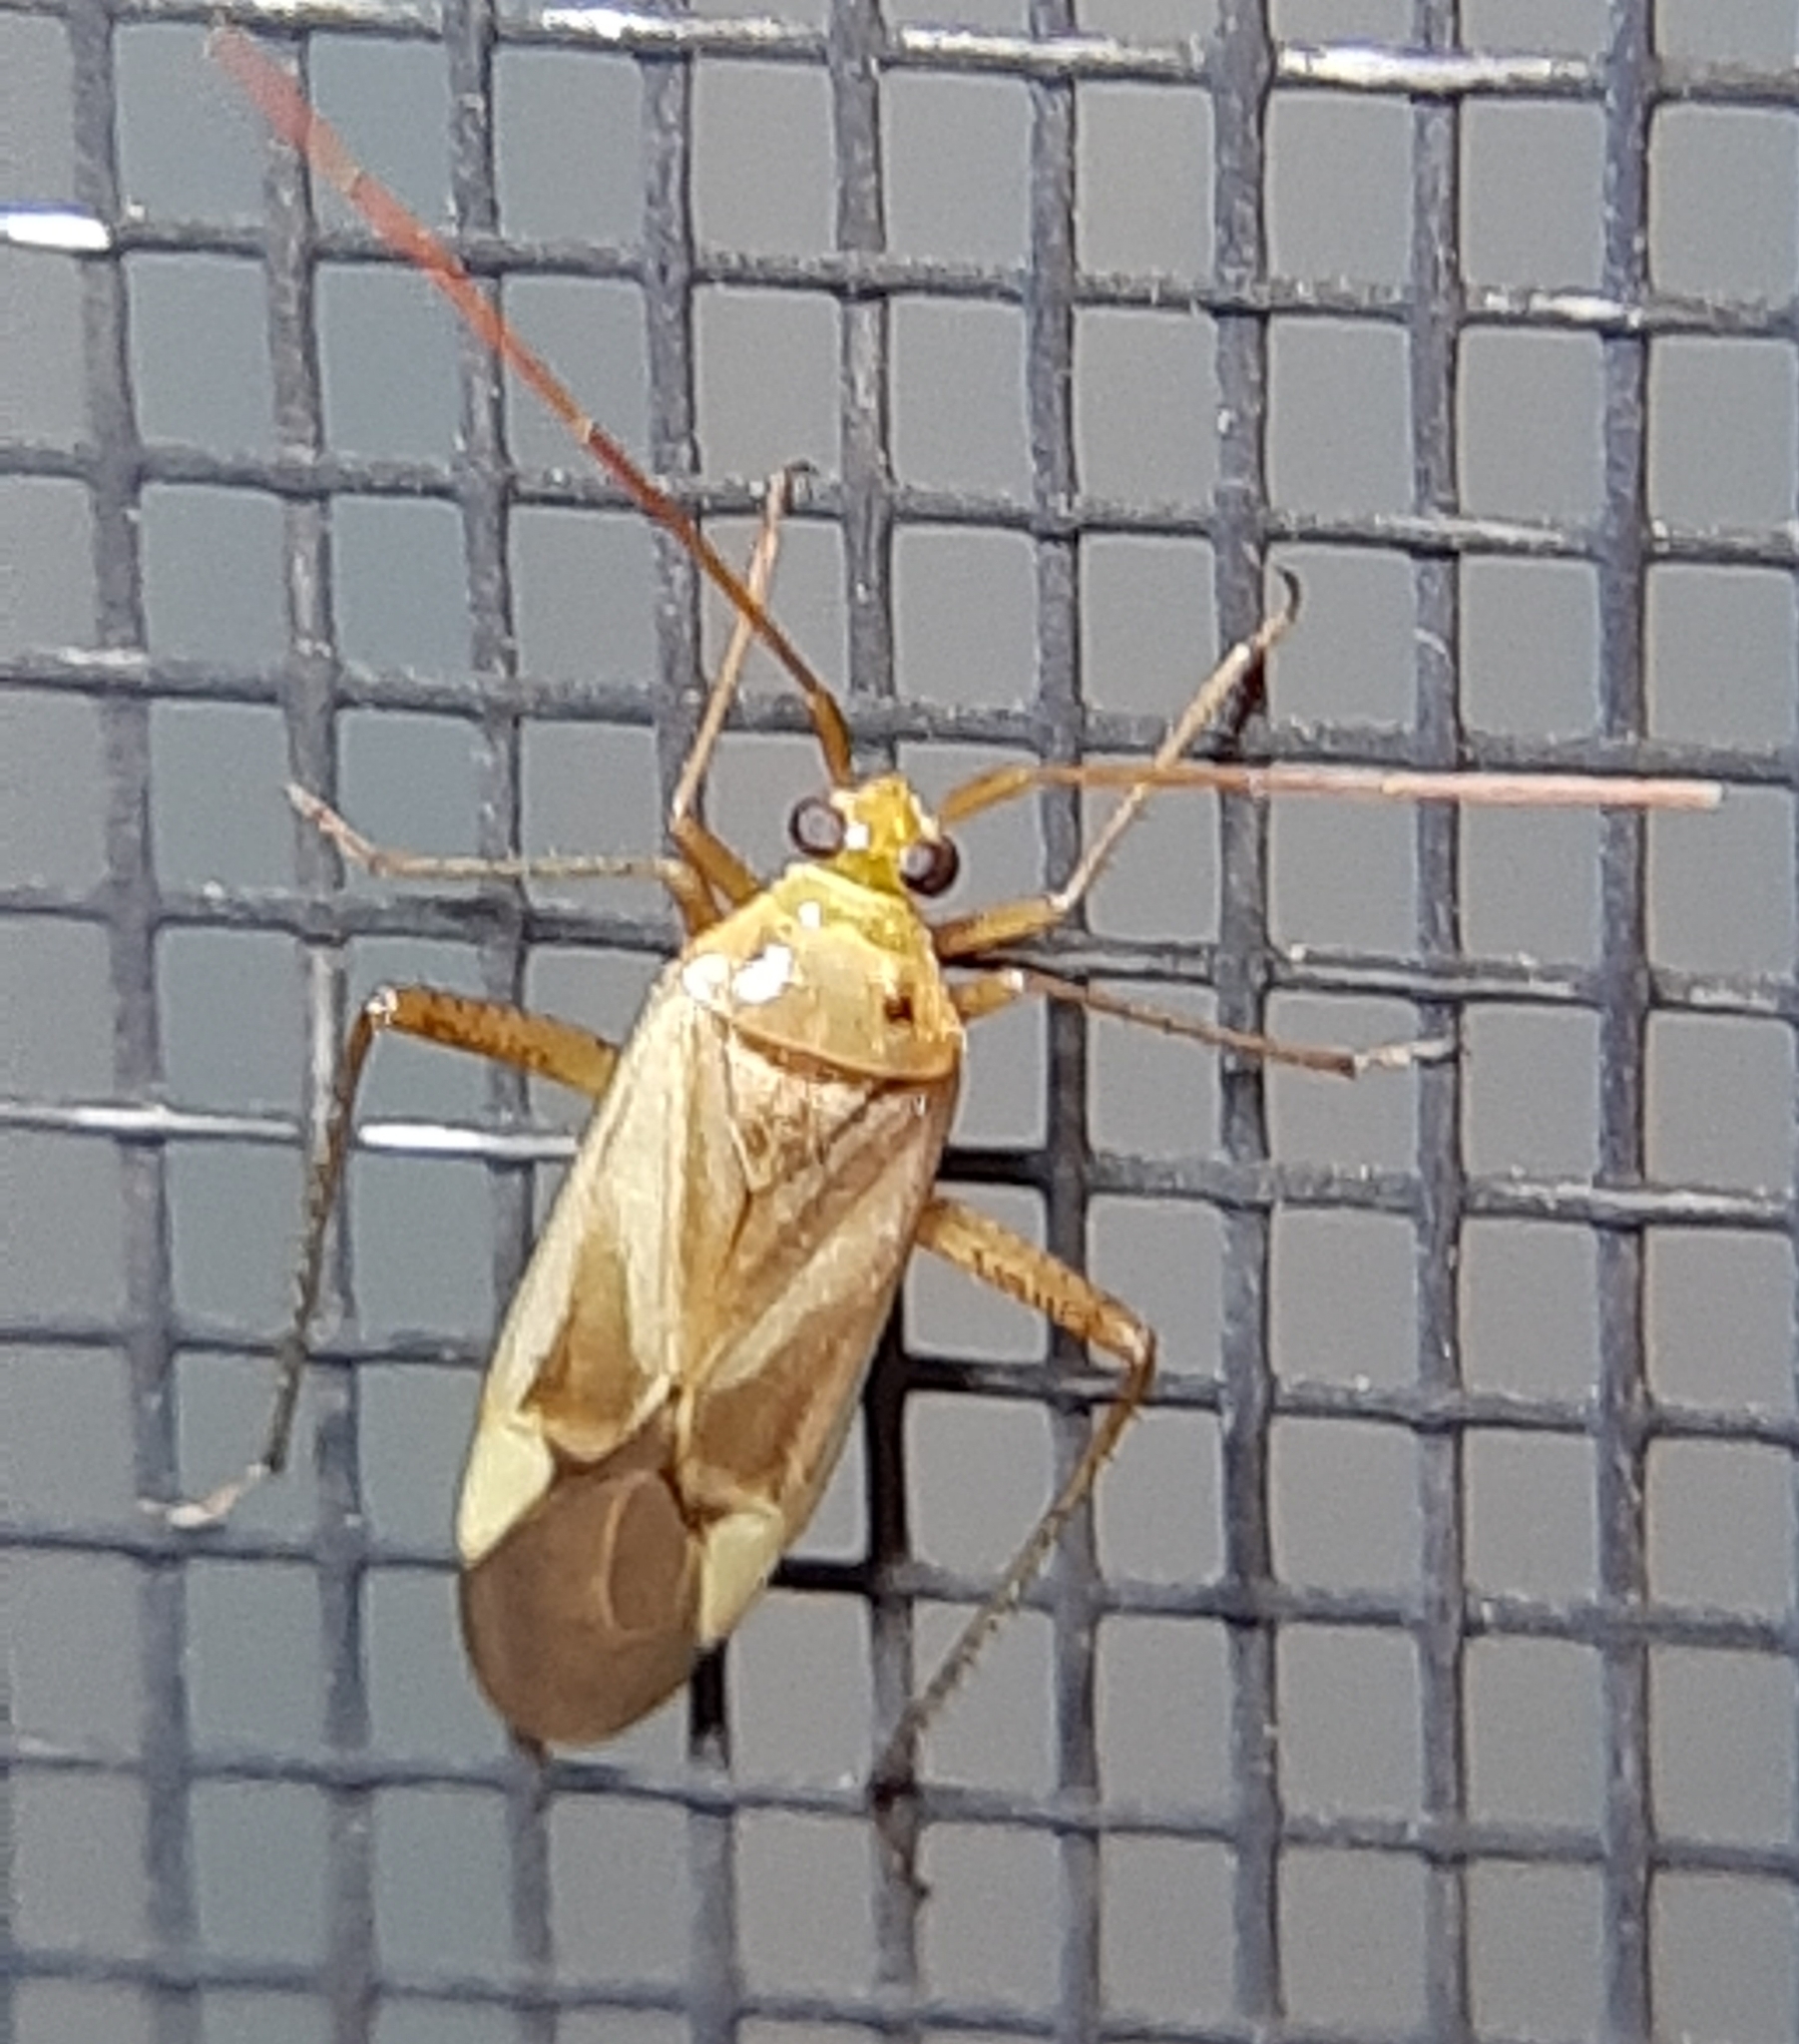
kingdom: Animalia
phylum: Arthropoda
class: Insecta
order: Hemiptera
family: Miridae
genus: Adelphocoris
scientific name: Adelphocoris lineolatus
